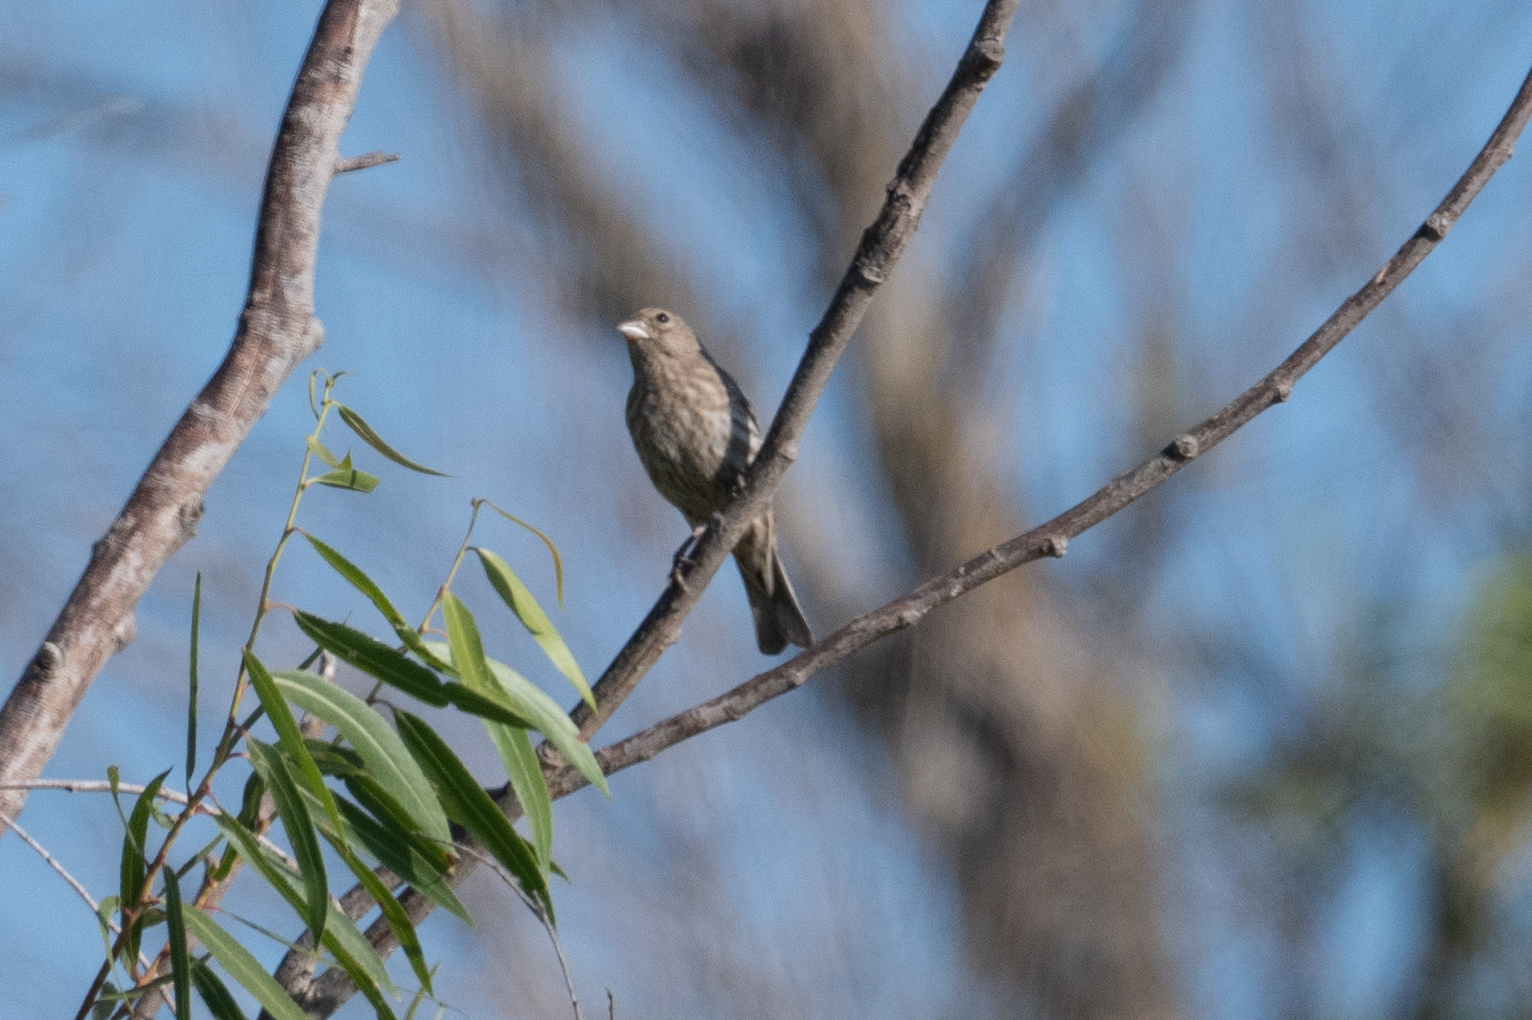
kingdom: Animalia
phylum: Chordata
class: Aves
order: Passeriformes
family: Fringillidae
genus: Haemorhous
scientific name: Haemorhous mexicanus
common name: House finch
